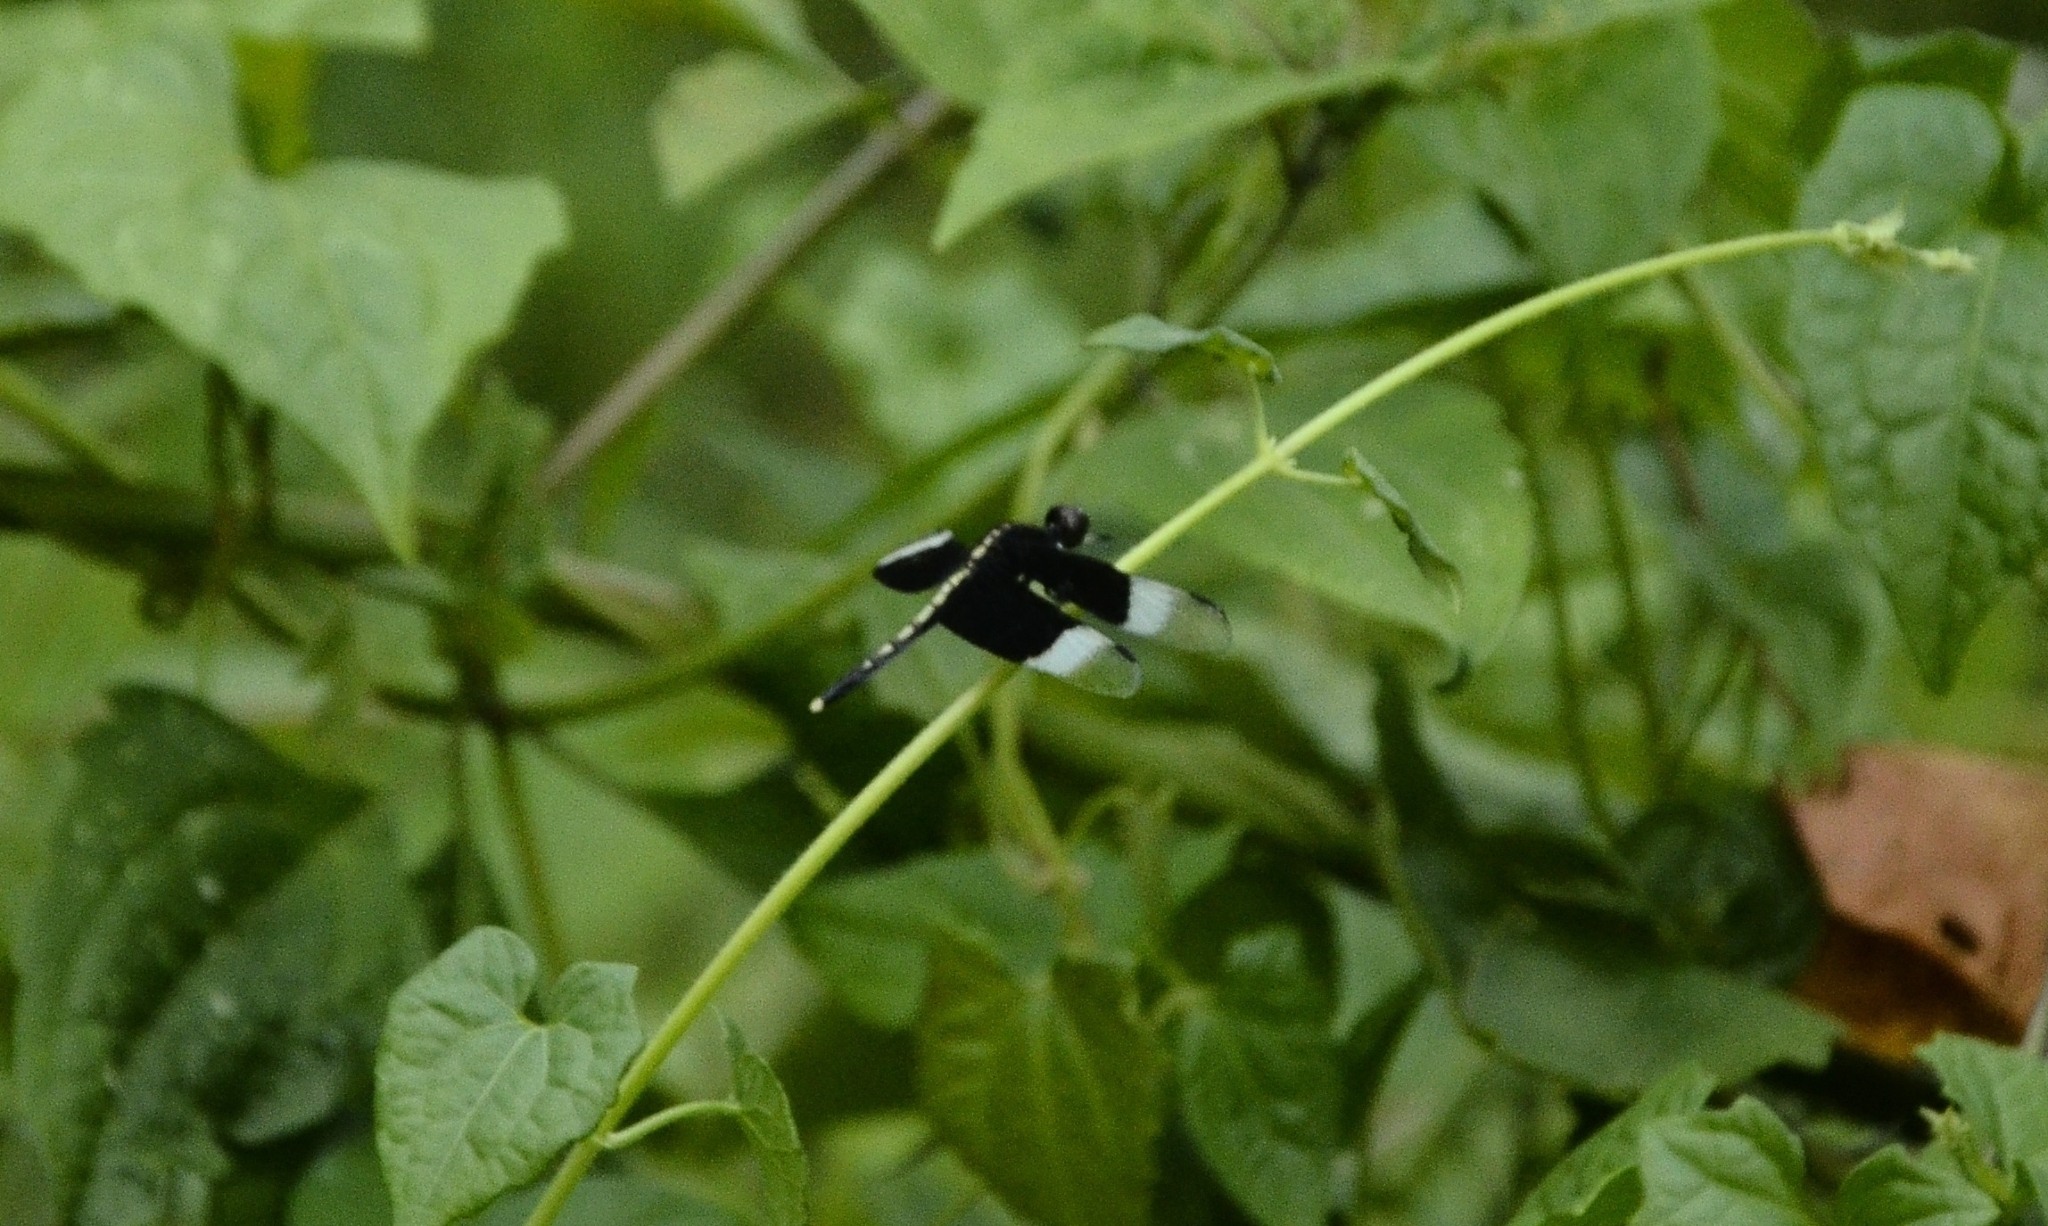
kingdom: Animalia
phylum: Arthropoda
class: Insecta
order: Odonata
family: Libellulidae
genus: Neurothemis
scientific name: Neurothemis tullia
